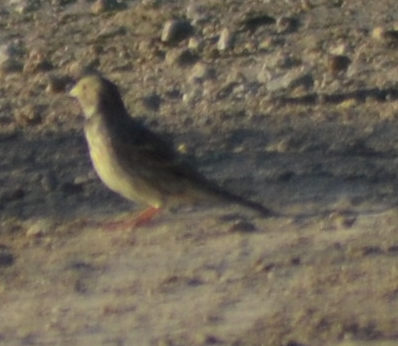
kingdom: Animalia
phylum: Chordata
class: Aves
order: Passeriformes
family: Emberizidae
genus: Emberiza
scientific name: Emberiza calandra
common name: Corn bunting
